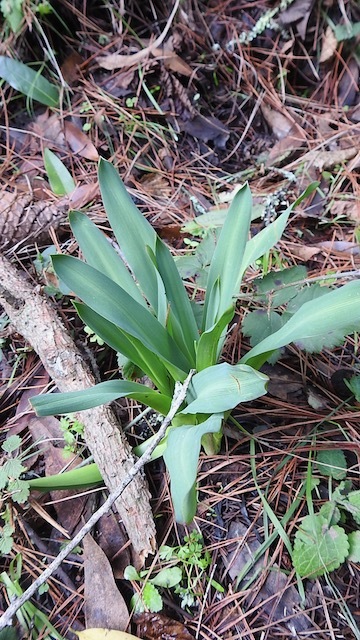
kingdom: Plantae
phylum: Tracheophyta
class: Liliopsida
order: Asparagales
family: Asparagaceae
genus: Chlorogalum
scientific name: Chlorogalum pomeridianum
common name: Amole
